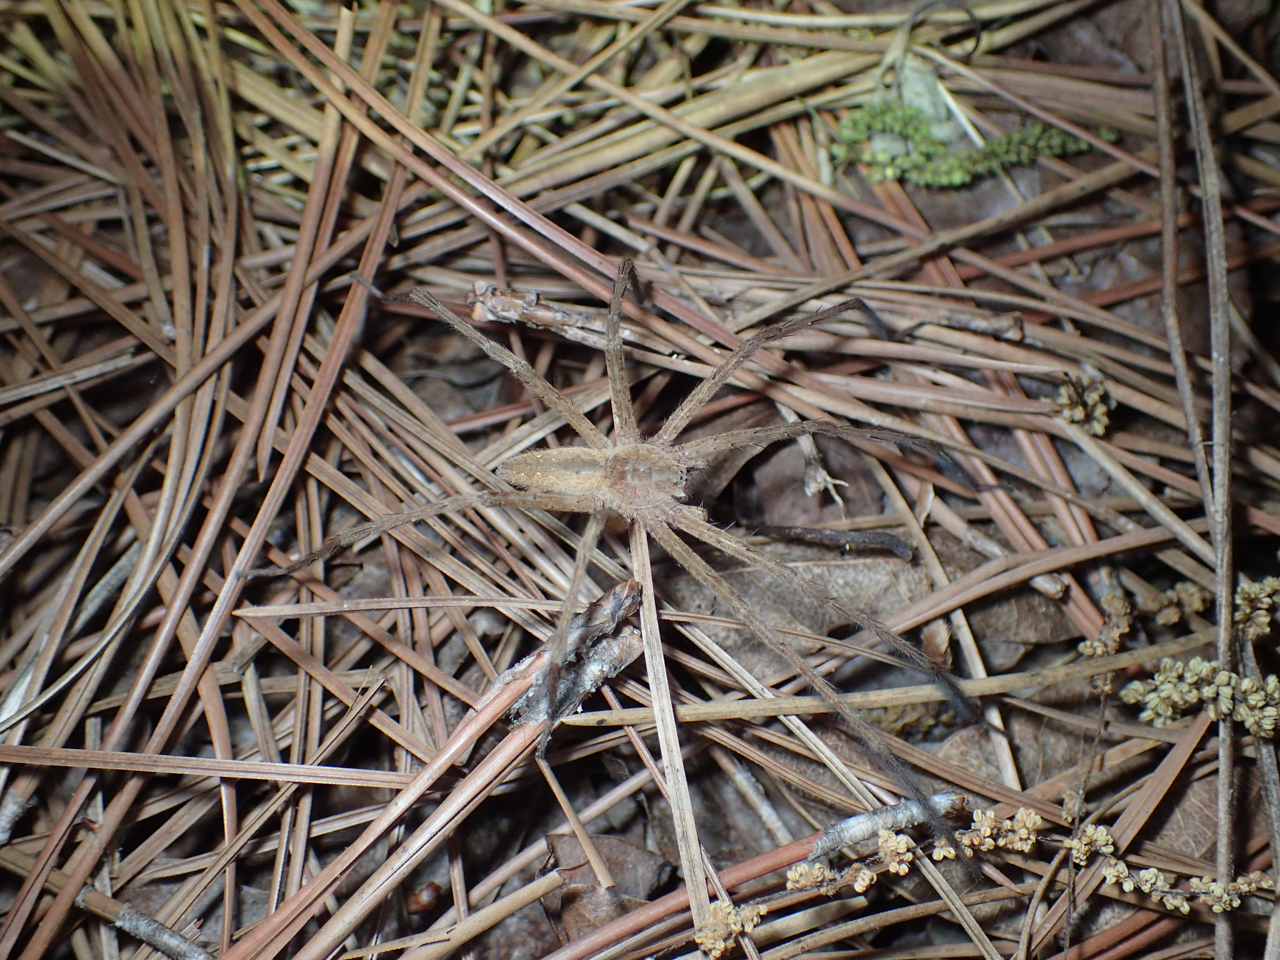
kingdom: Animalia
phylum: Arthropoda
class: Arachnida
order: Araneae
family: Pisauridae
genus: Pisaurina
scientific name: Pisaurina mira
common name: American nursery web spider
